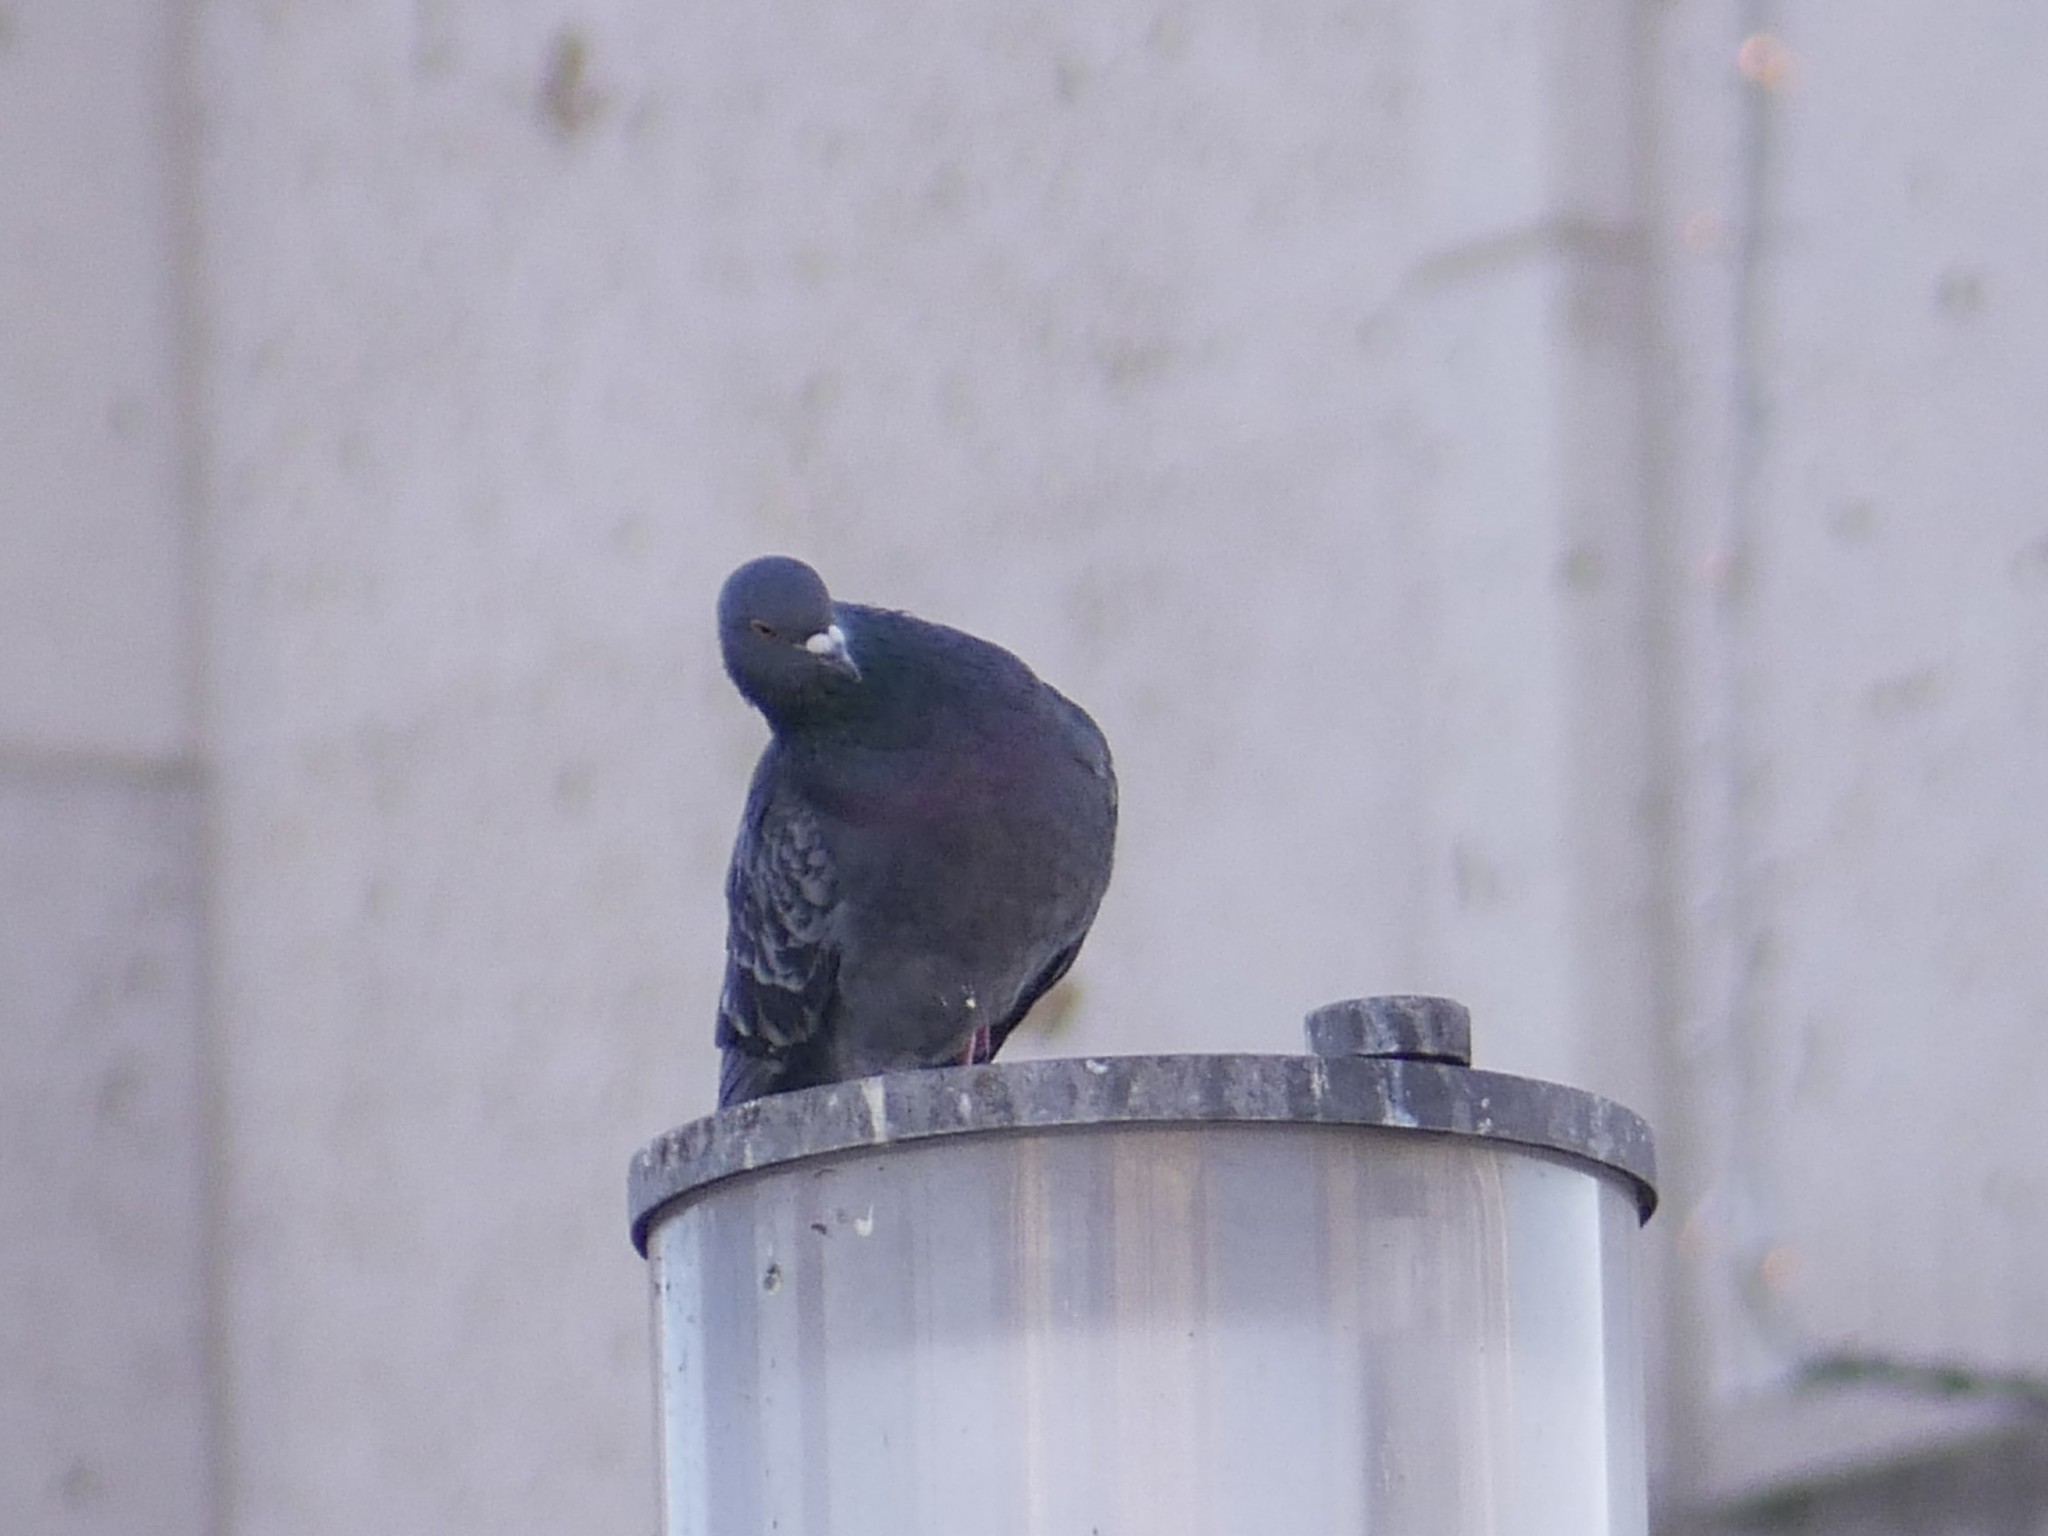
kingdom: Animalia
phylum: Chordata
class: Aves
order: Columbiformes
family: Columbidae
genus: Columba
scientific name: Columba livia
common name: Rock pigeon
